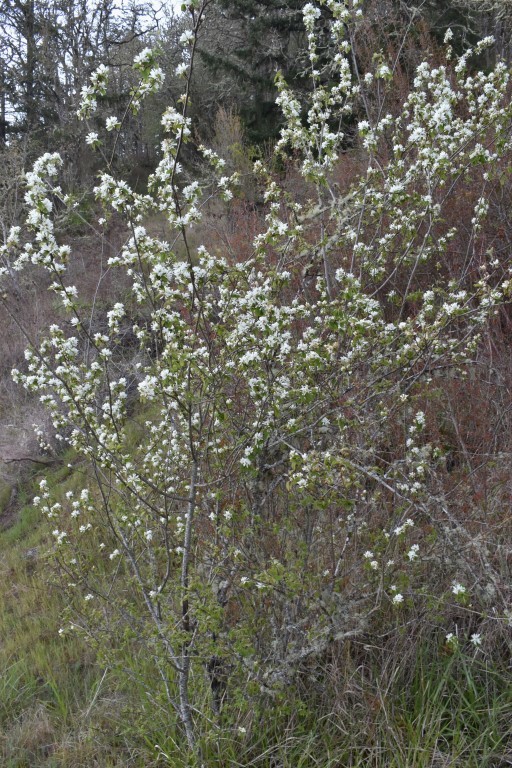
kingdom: Plantae
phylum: Tracheophyta
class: Magnoliopsida
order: Rosales
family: Rosaceae
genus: Amelanchier
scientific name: Amelanchier alnifolia
